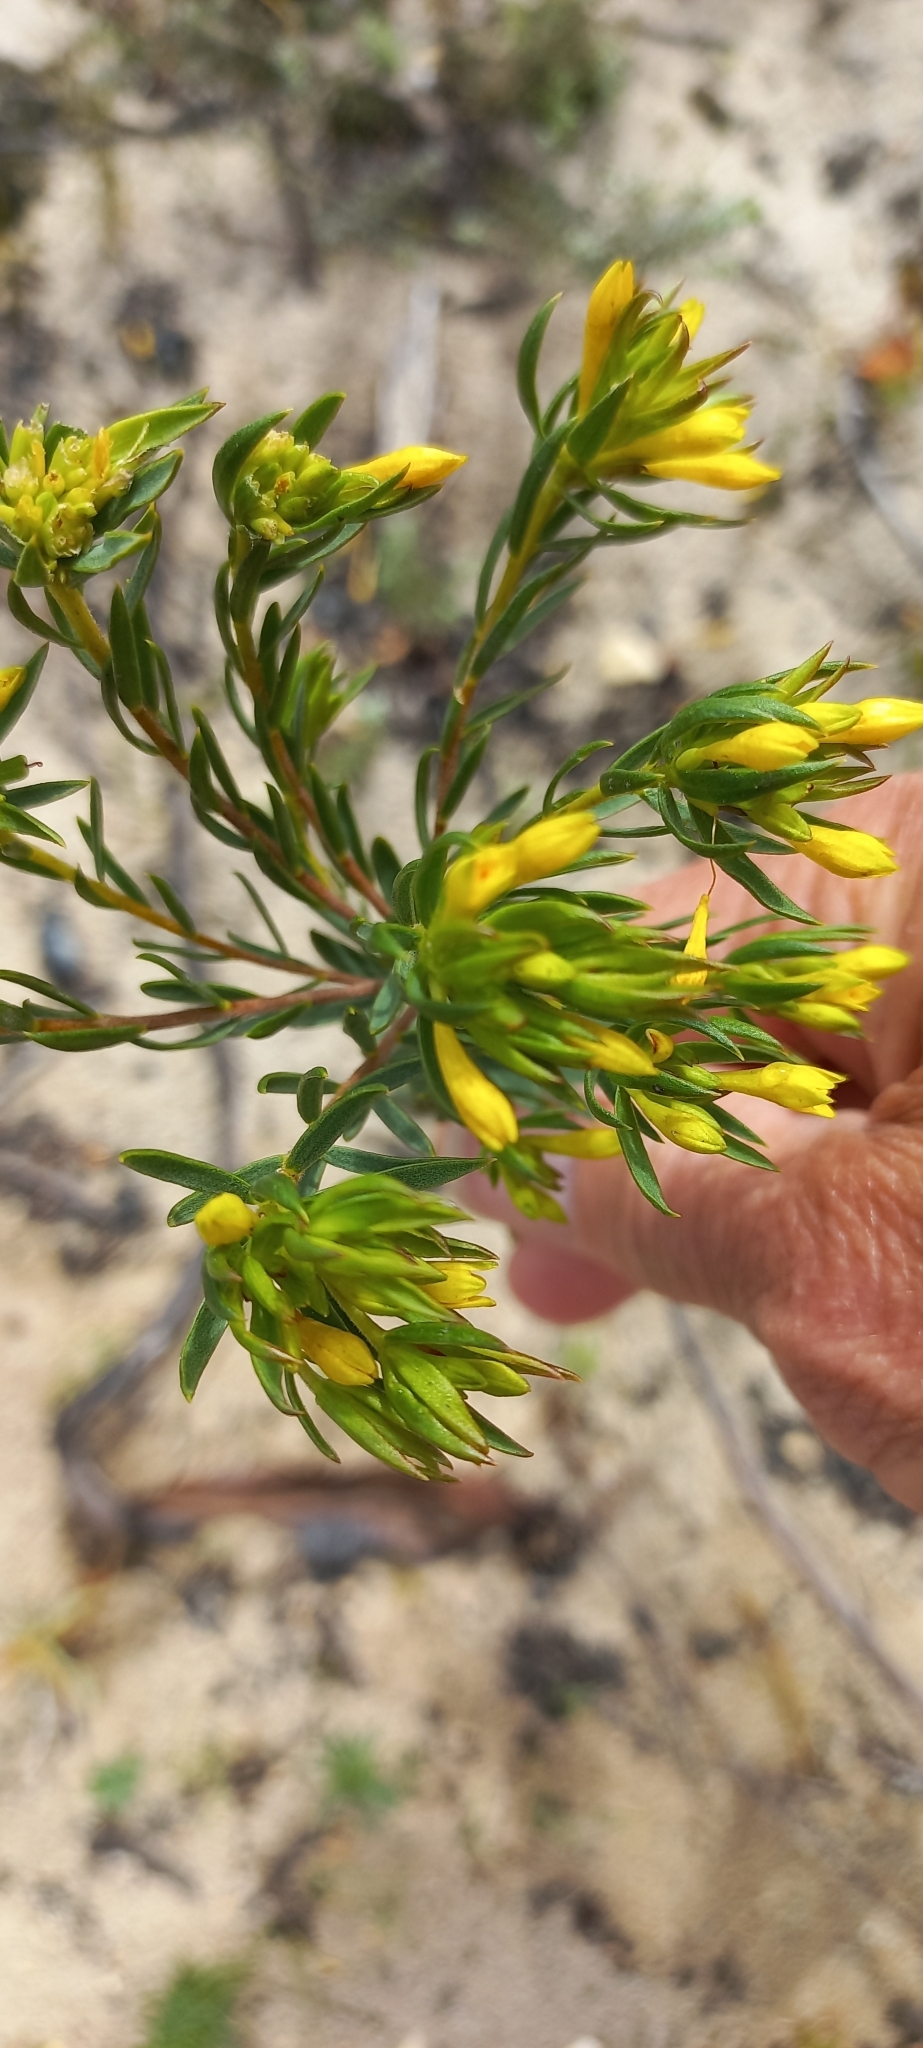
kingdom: Plantae
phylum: Tracheophyta
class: Magnoliopsida
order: Malvales
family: Thymelaeaceae
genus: Gnidia
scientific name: Gnidia juniperifolia
